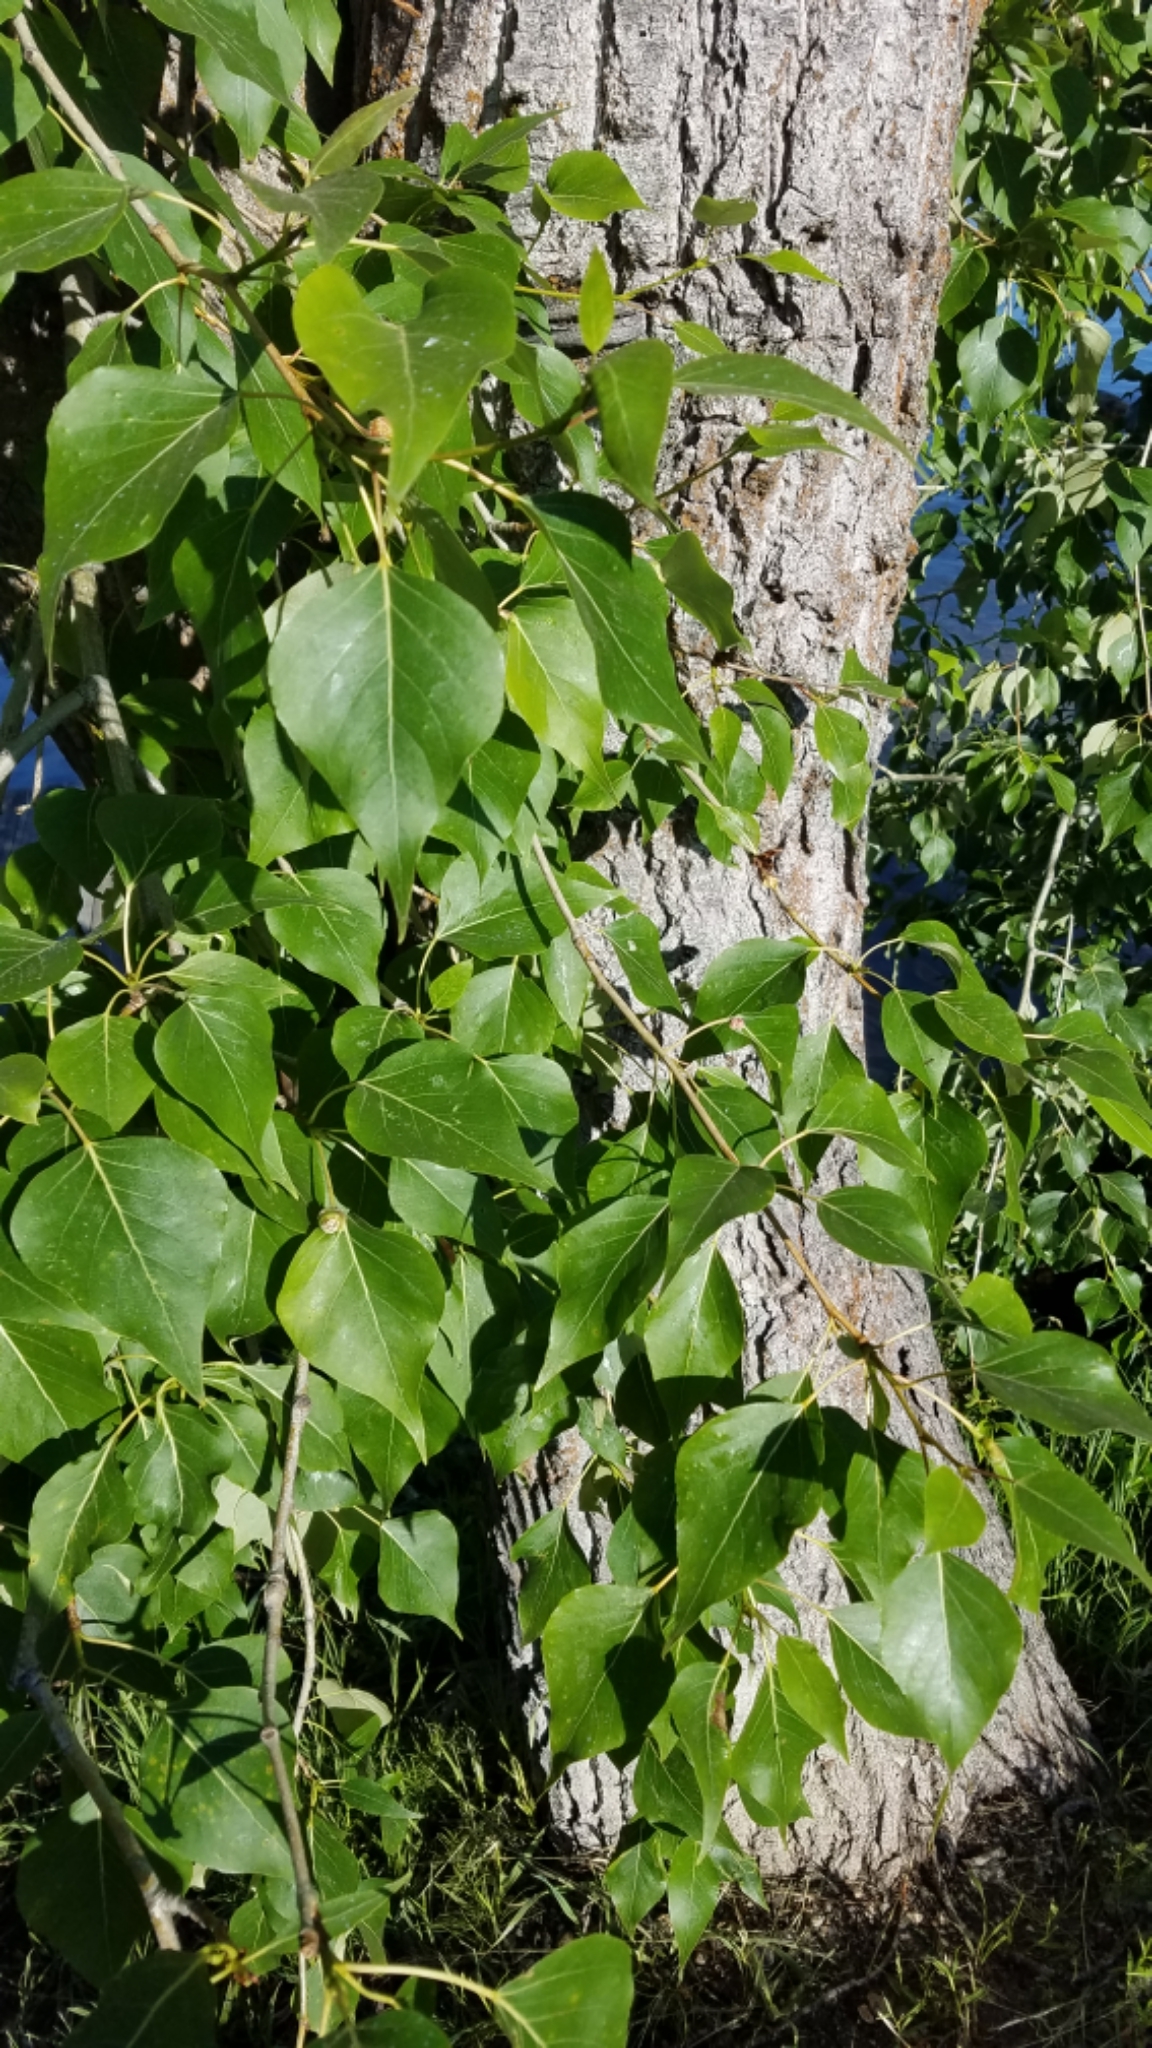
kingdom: Plantae
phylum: Tracheophyta
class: Magnoliopsida
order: Malpighiales
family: Salicaceae
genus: Populus
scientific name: Populus trichocarpa
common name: Black cottonwood
